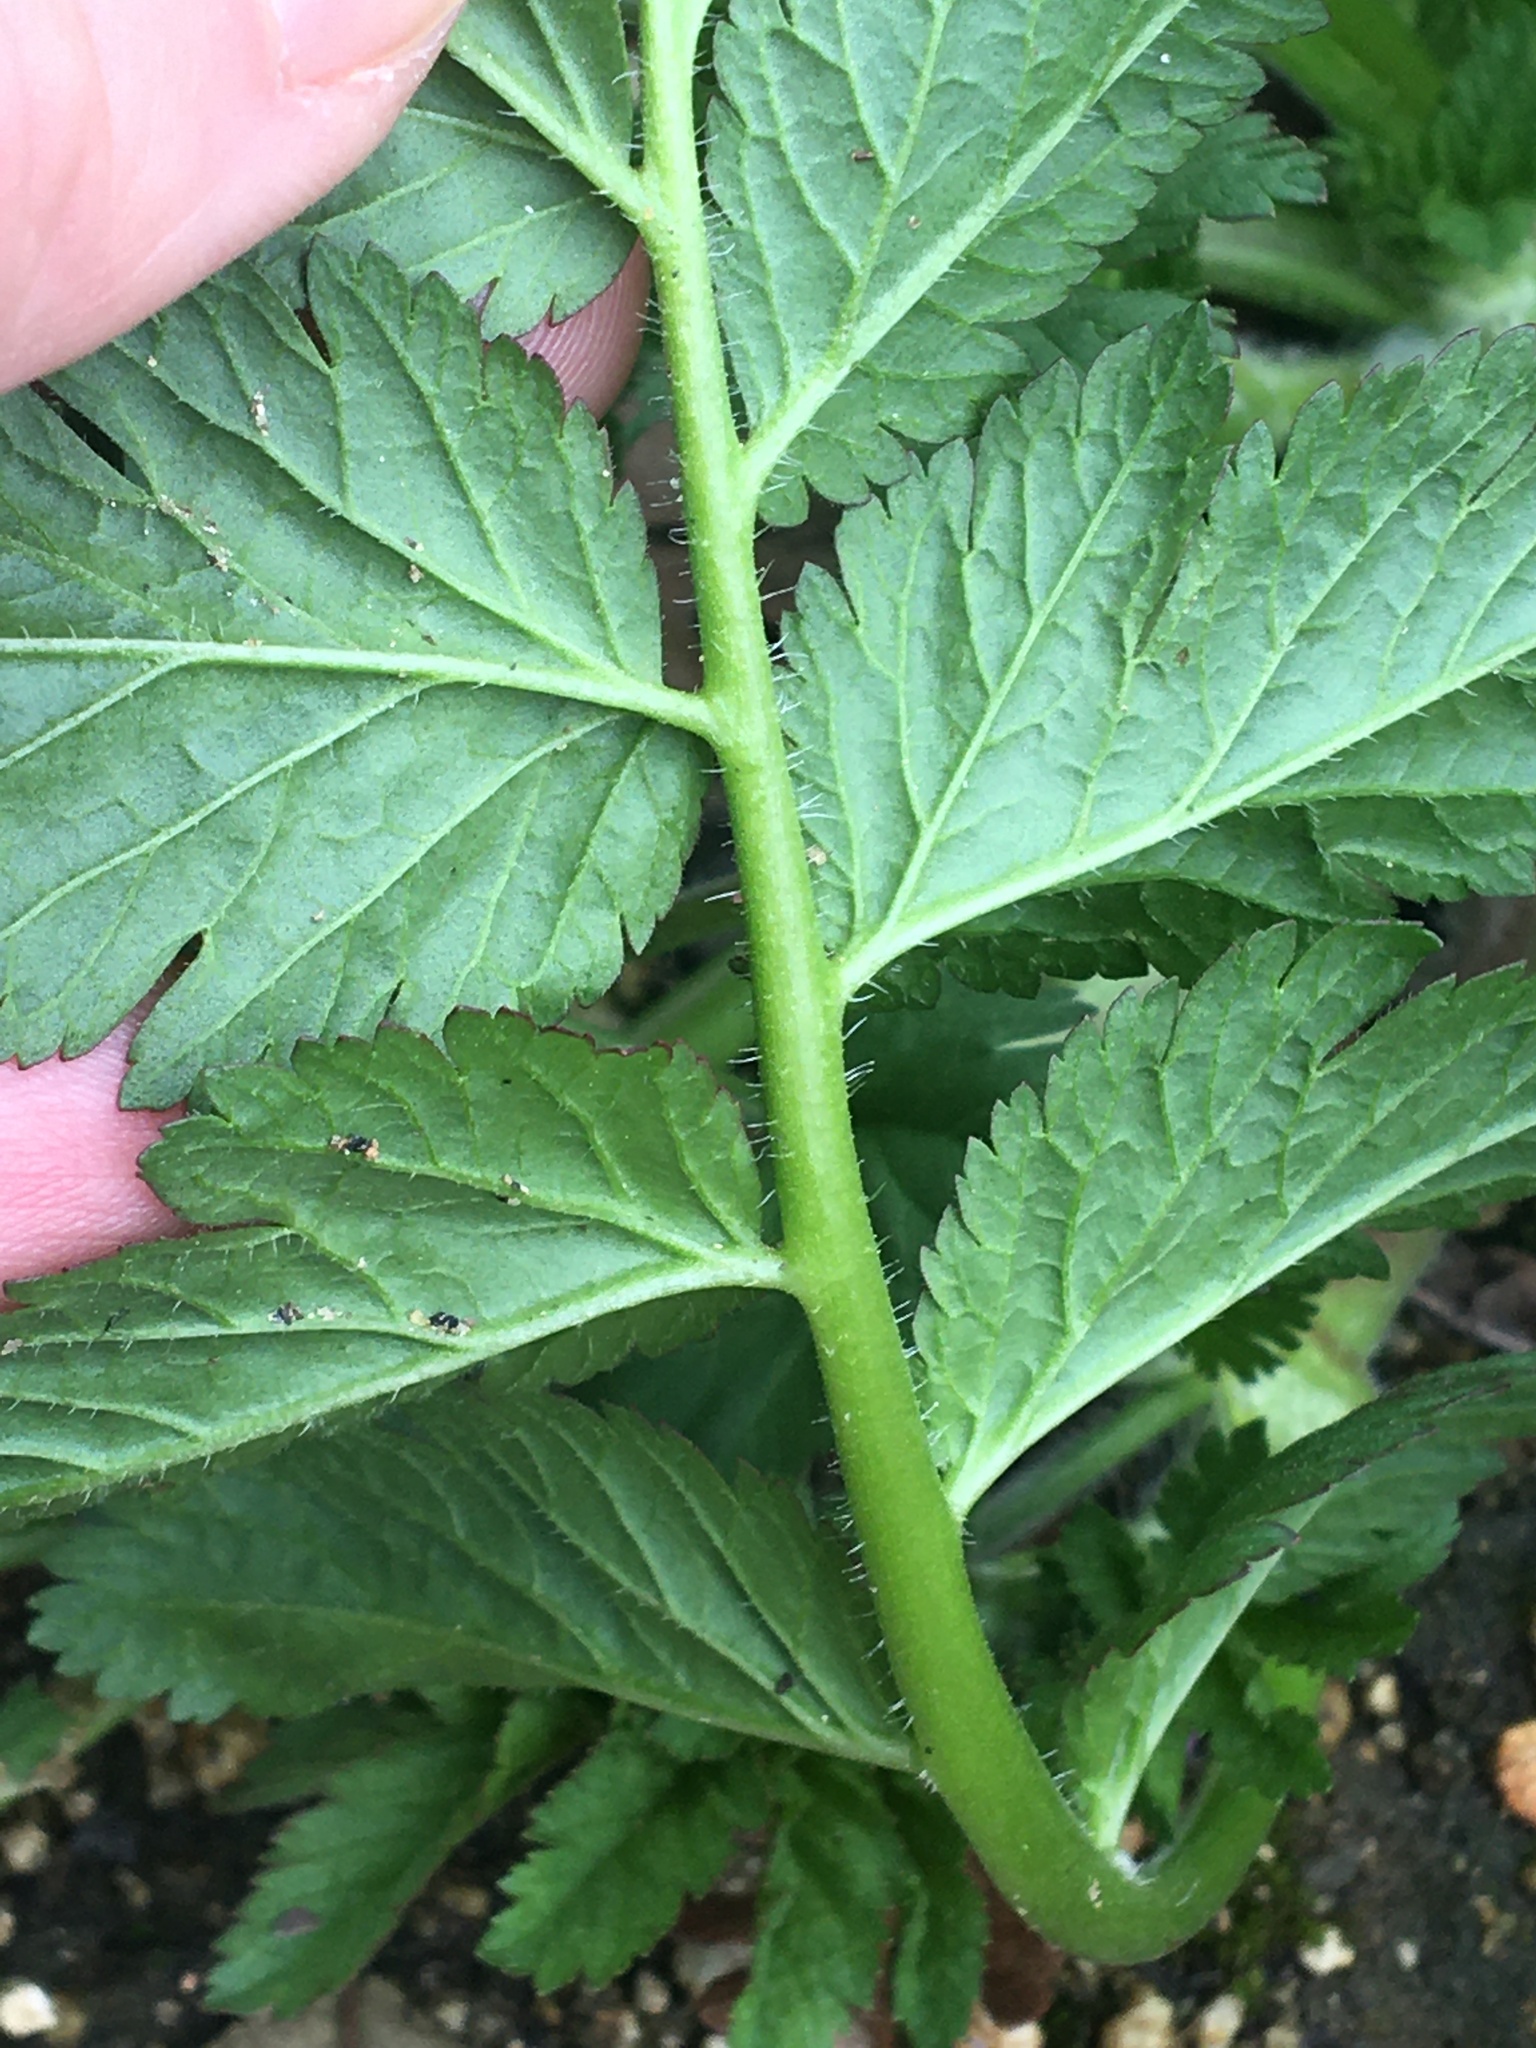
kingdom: Plantae
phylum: Tracheophyta
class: Magnoliopsida
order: Geraniales
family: Geraniaceae
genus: Erodium
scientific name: Erodium moschatum
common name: Musk stork's-bill
